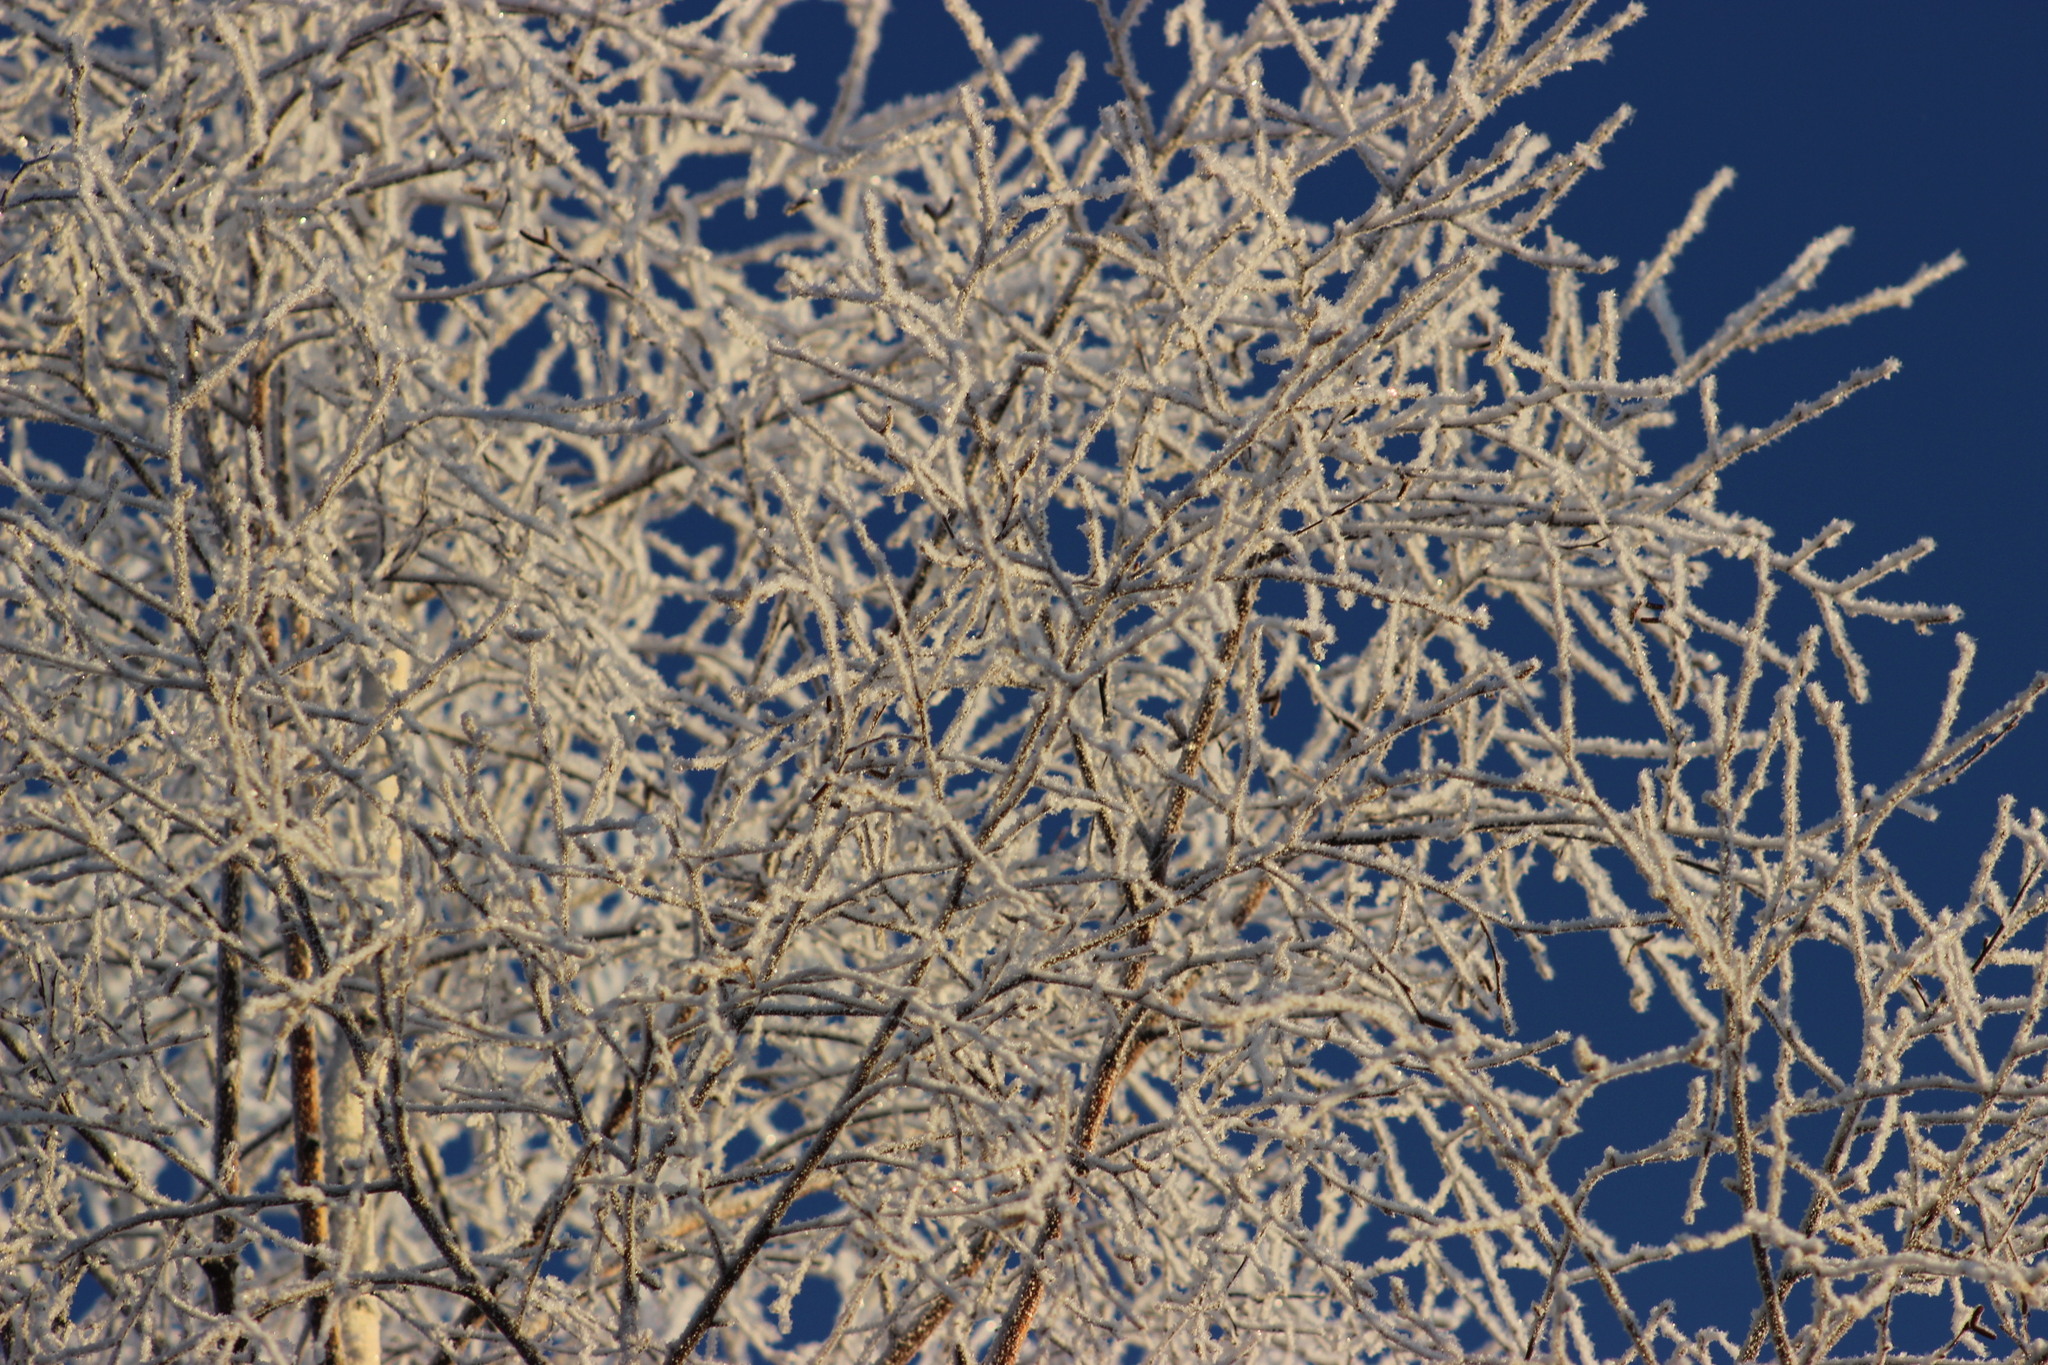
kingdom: Plantae
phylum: Tracheophyta
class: Magnoliopsida
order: Fagales
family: Betulaceae
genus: Betula
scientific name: Betula pubescens
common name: Downy birch
